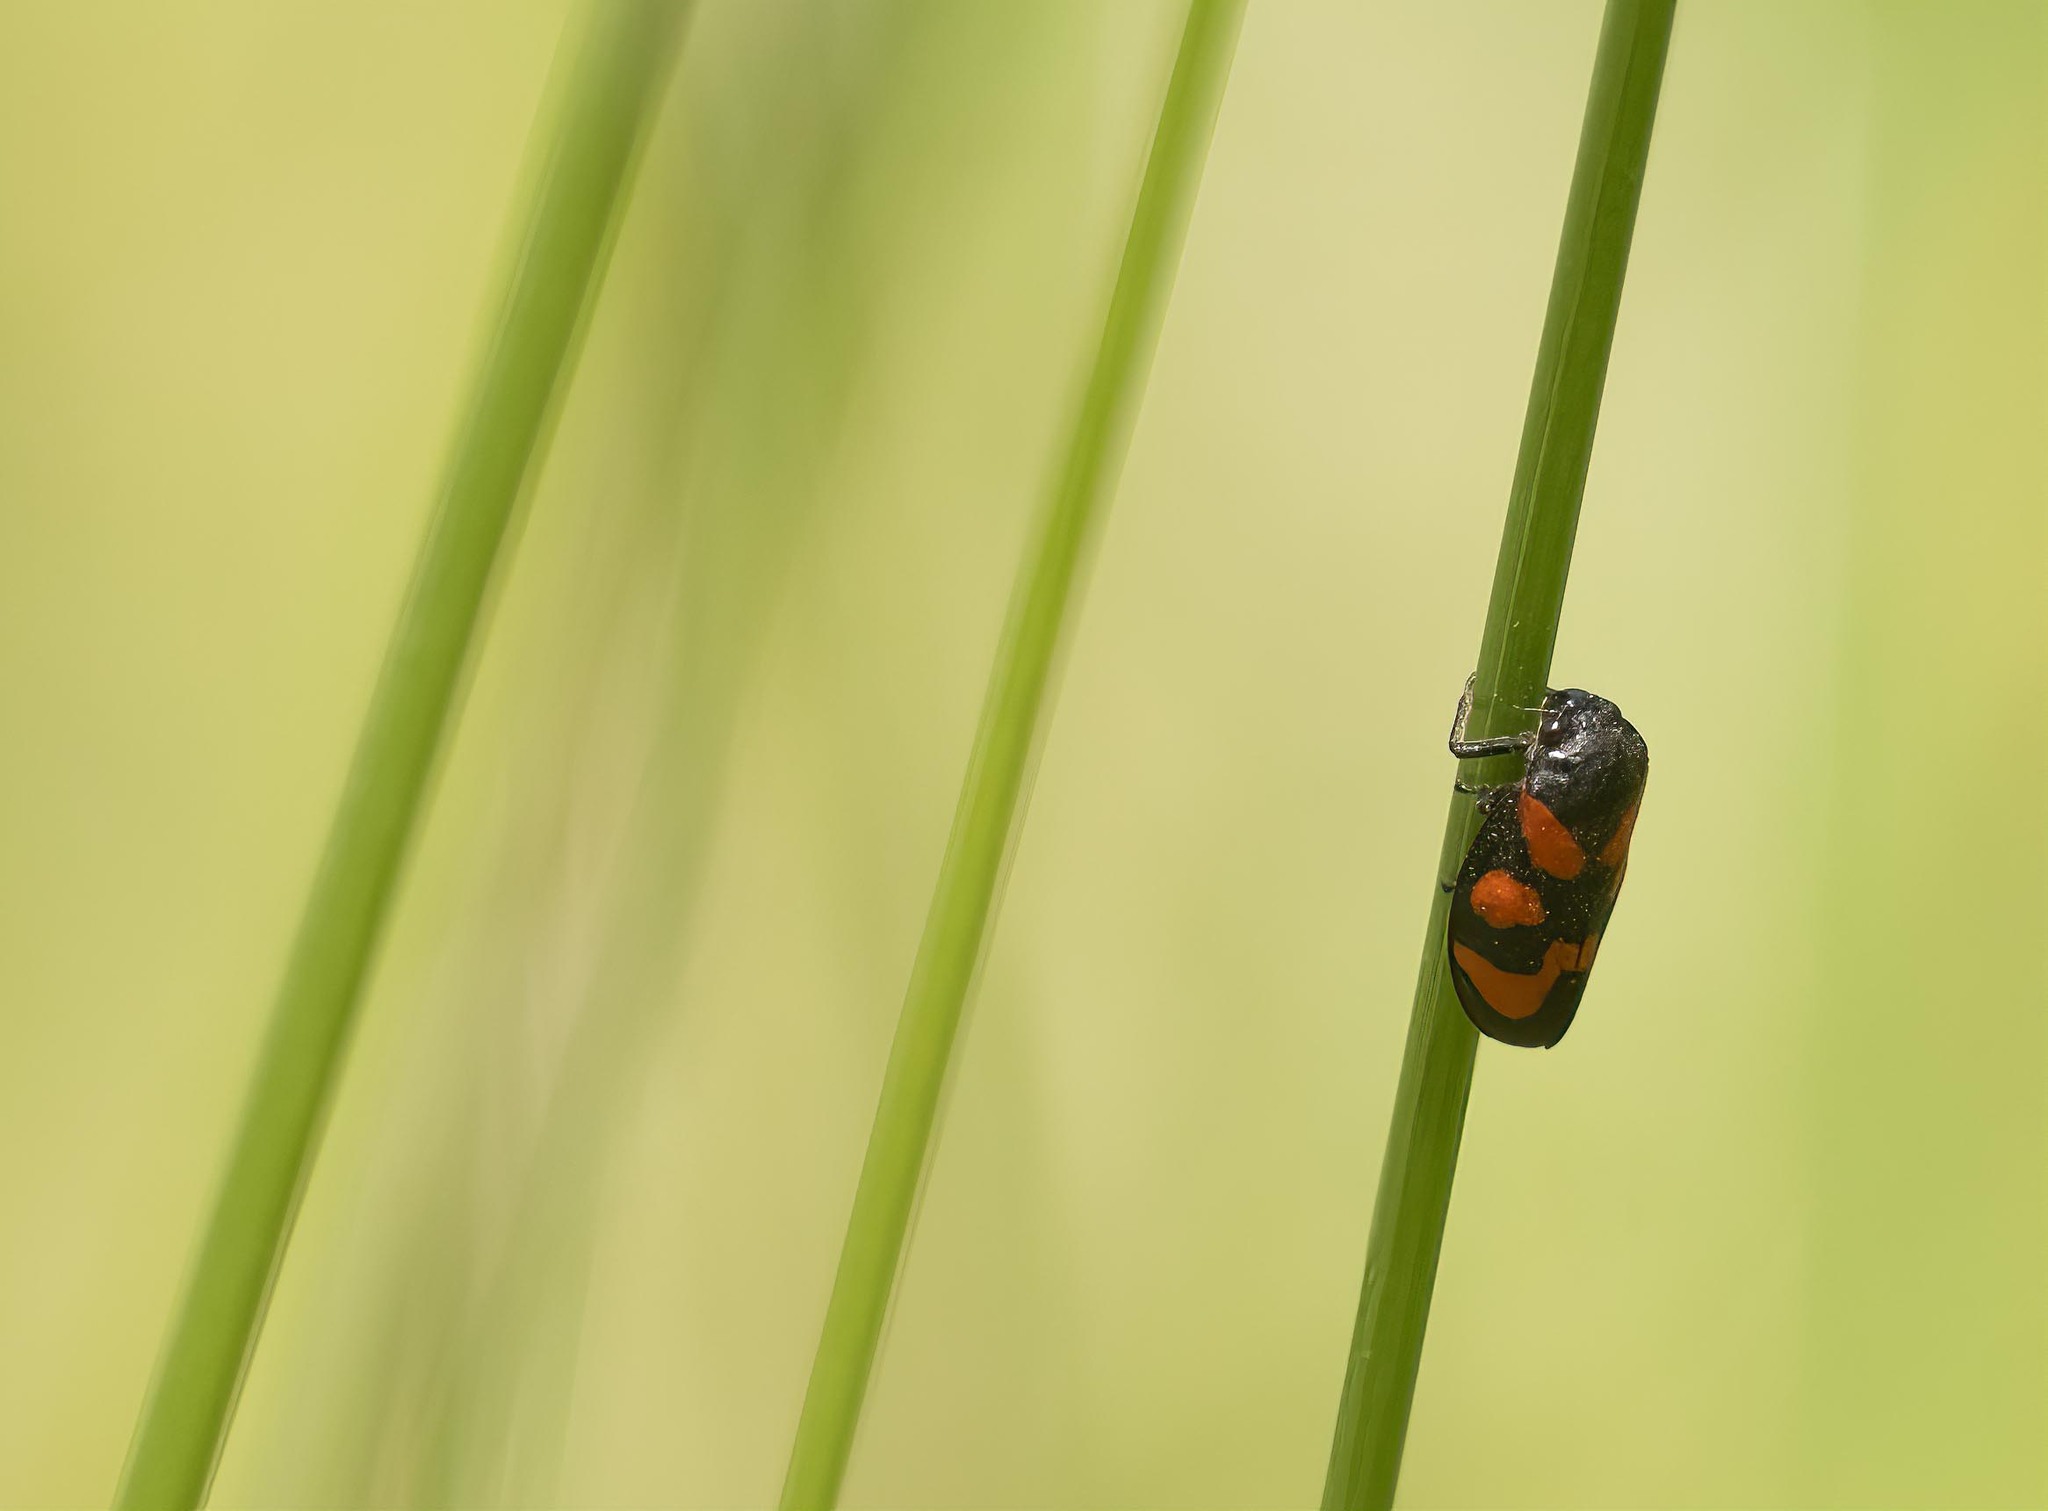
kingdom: Animalia
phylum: Arthropoda
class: Insecta
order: Hemiptera
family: Cercopidae
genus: Cercopis
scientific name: Cercopis vulnerata
